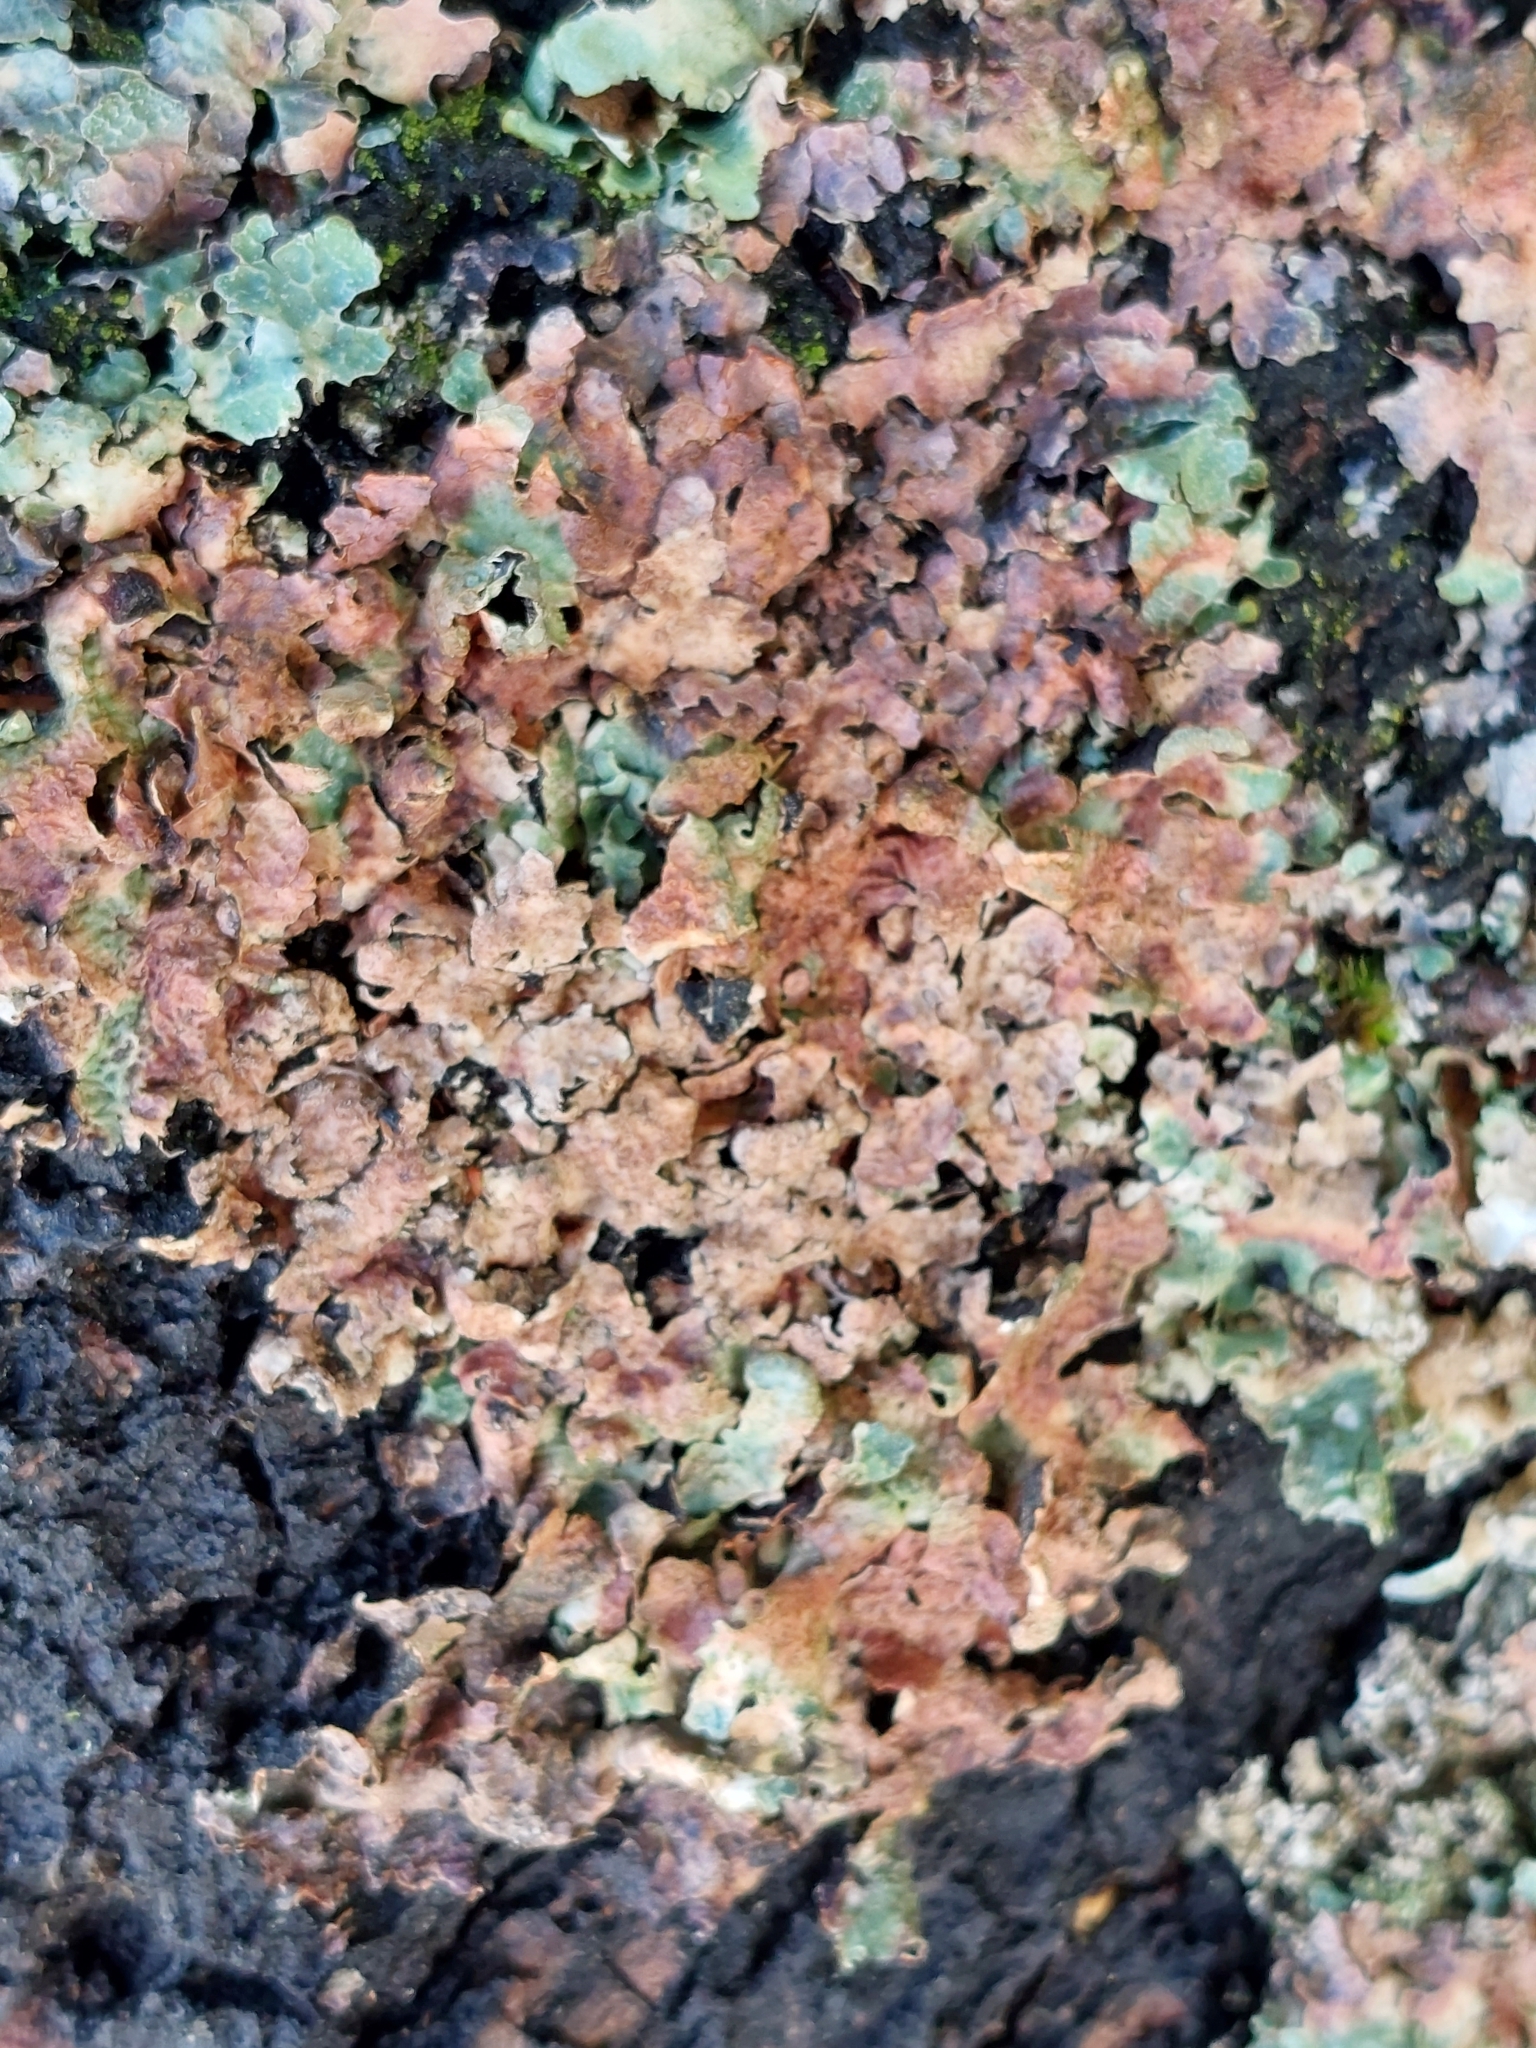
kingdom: Fungi
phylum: Ascomycota
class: Lecanoromycetes
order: Lecanorales
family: Parmeliaceae
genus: Parmelia
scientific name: Parmelia sulcata
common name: Netted shield lichen
